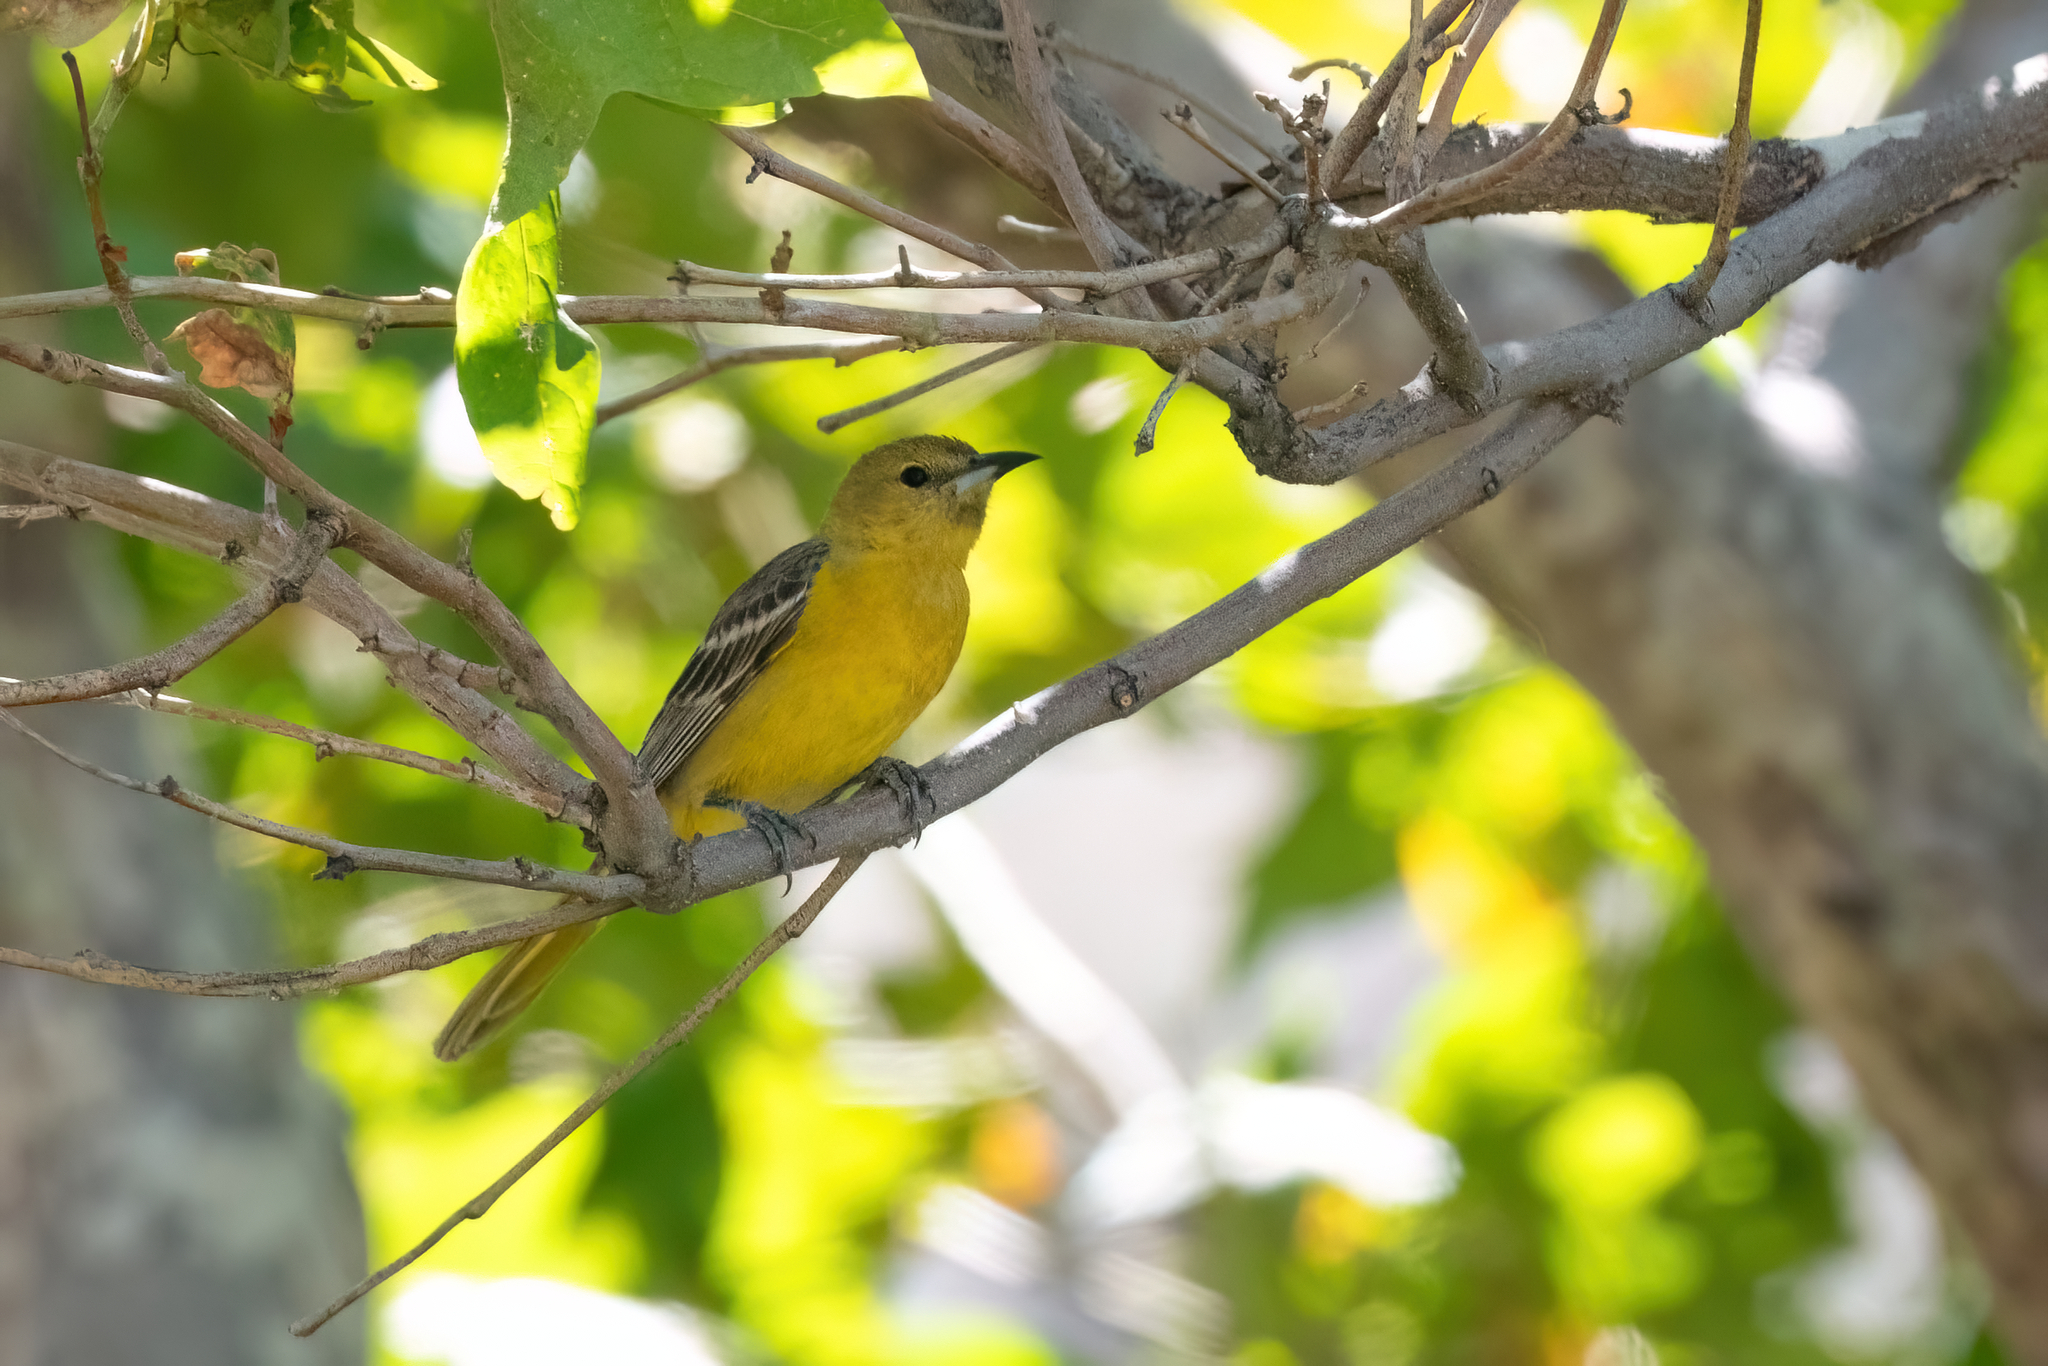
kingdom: Animalia
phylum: Chordata
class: Aves
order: Passeriformes
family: Icteridae
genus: Icterus
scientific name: Icterus cucullatus
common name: Hooded oriole
